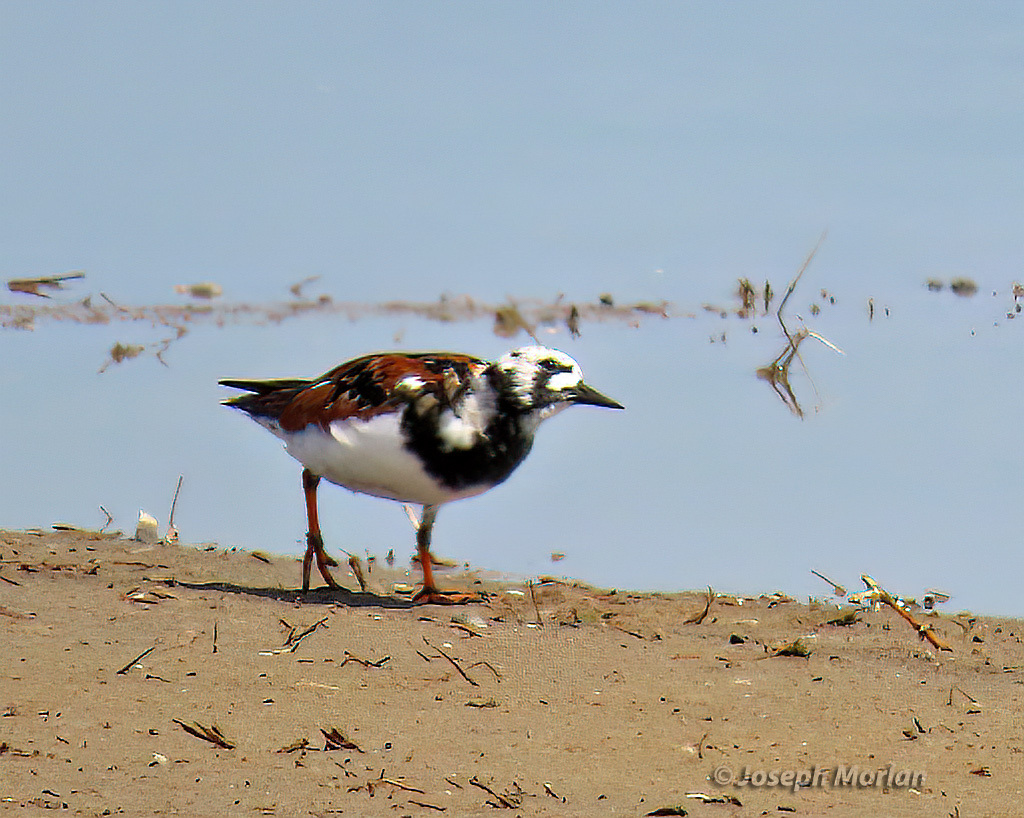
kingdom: Animalia
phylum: Chordata
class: Aves
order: Charadriiformes
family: Scolopacidae
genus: Arenaria
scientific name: Arenaria interpres
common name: Ruddy turnstone
